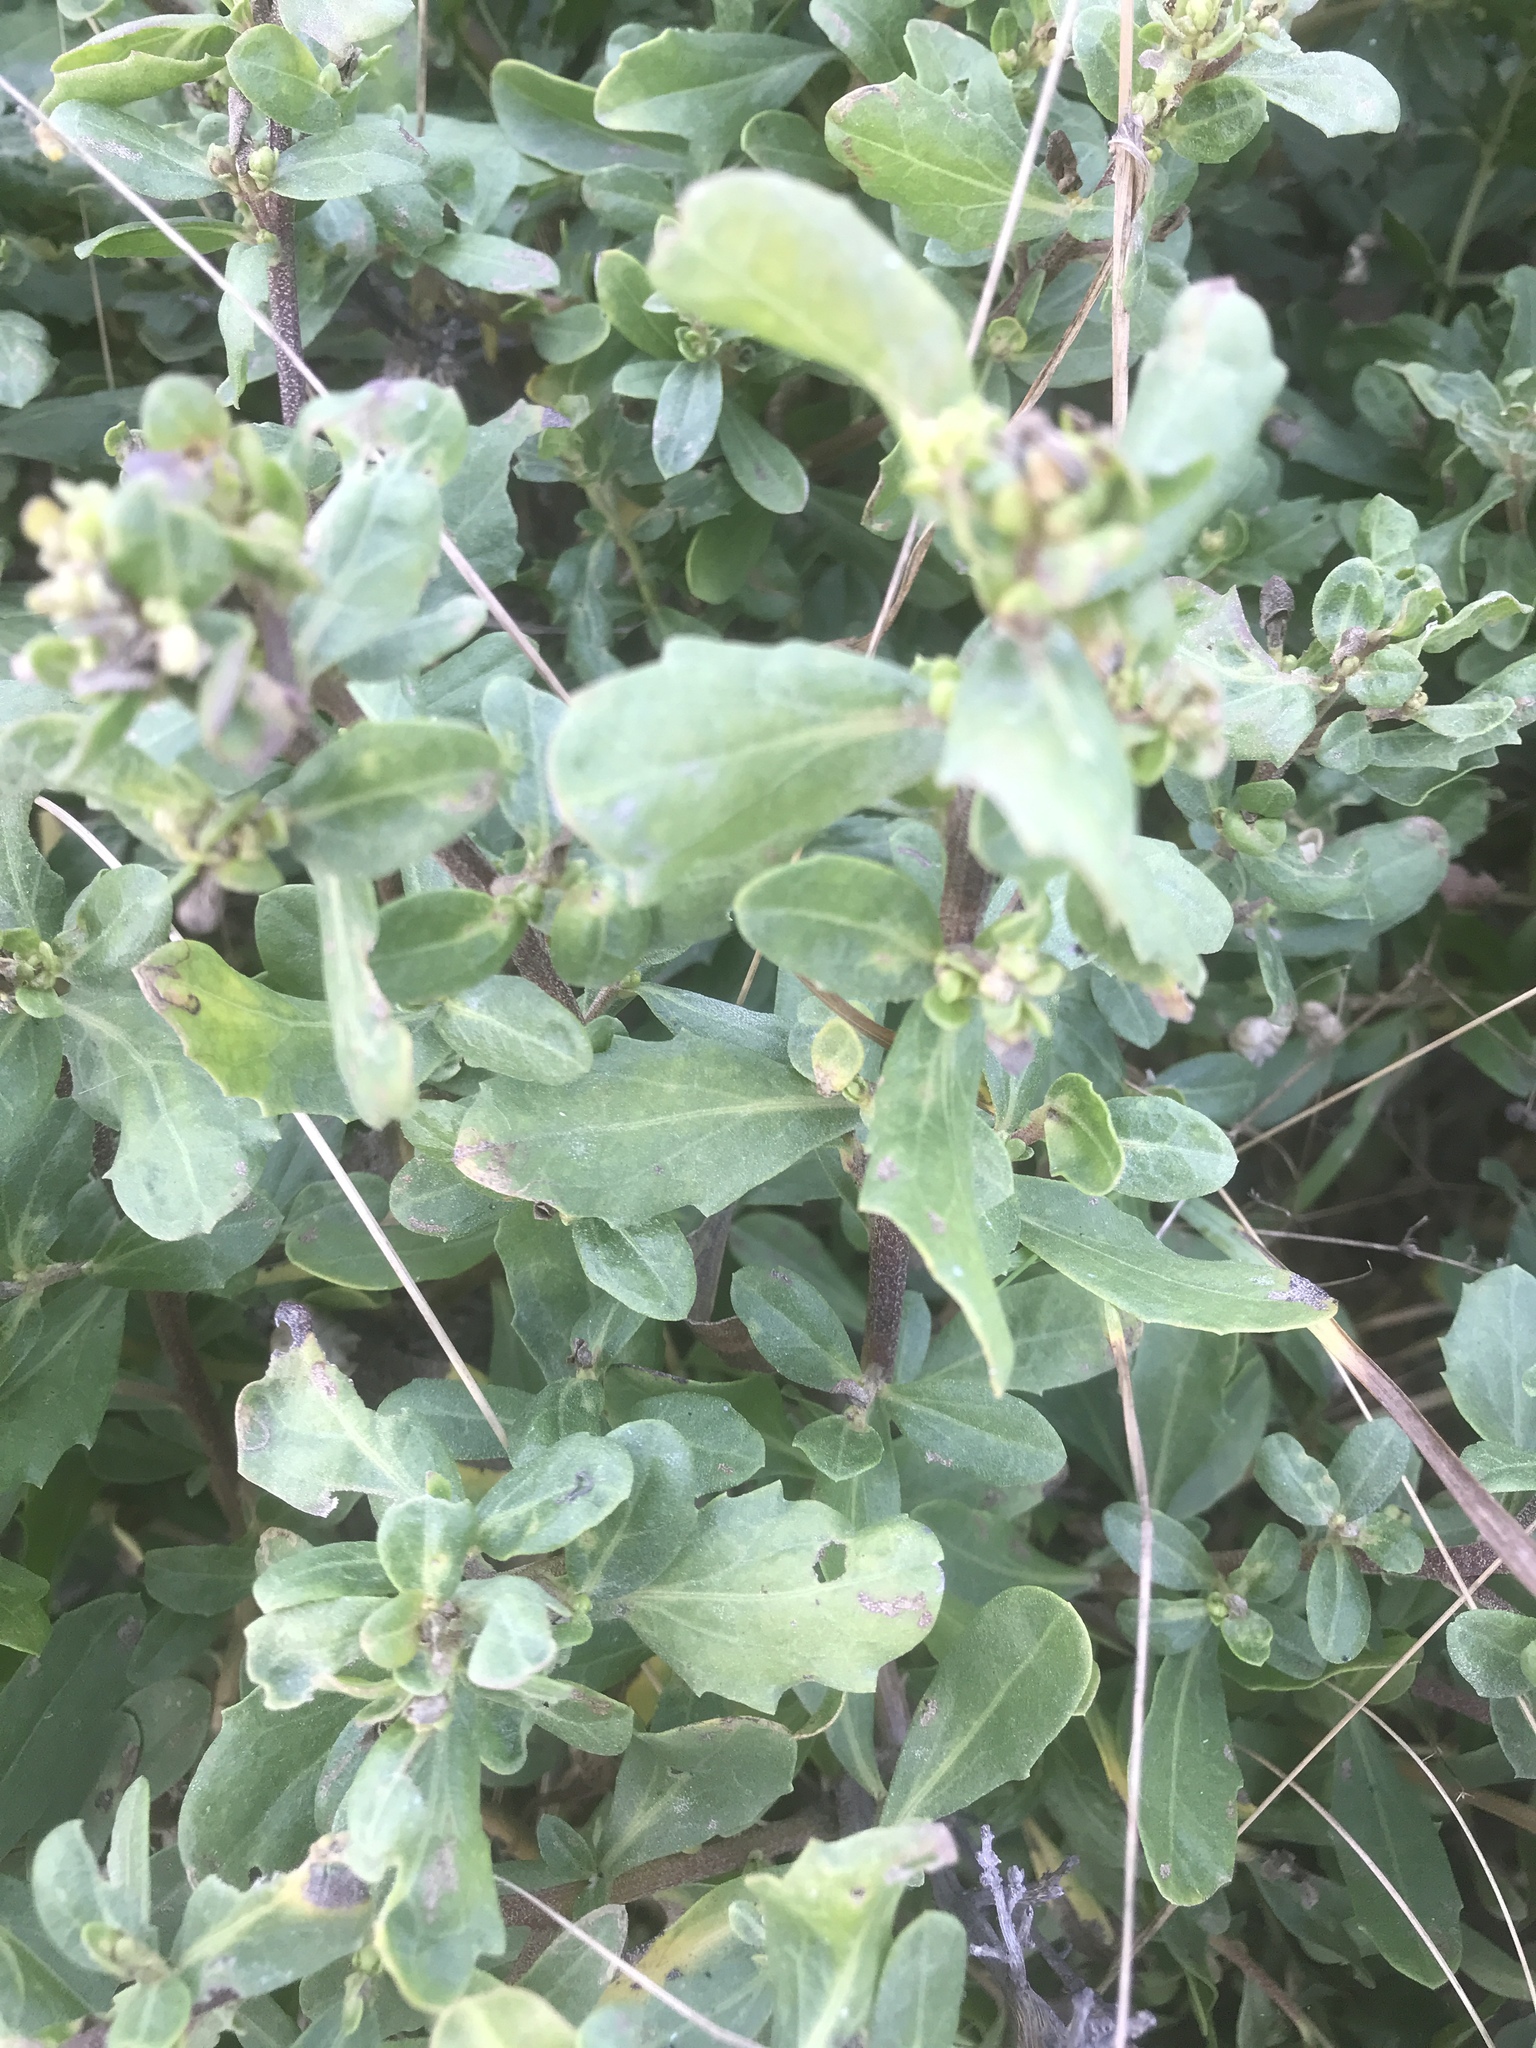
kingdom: Plantae
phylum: Tracheophyta
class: Magnoliopsida
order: Asterales
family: Asteraceae
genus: Baccharis
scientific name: Baccharis pilularis
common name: Coyotebrush
